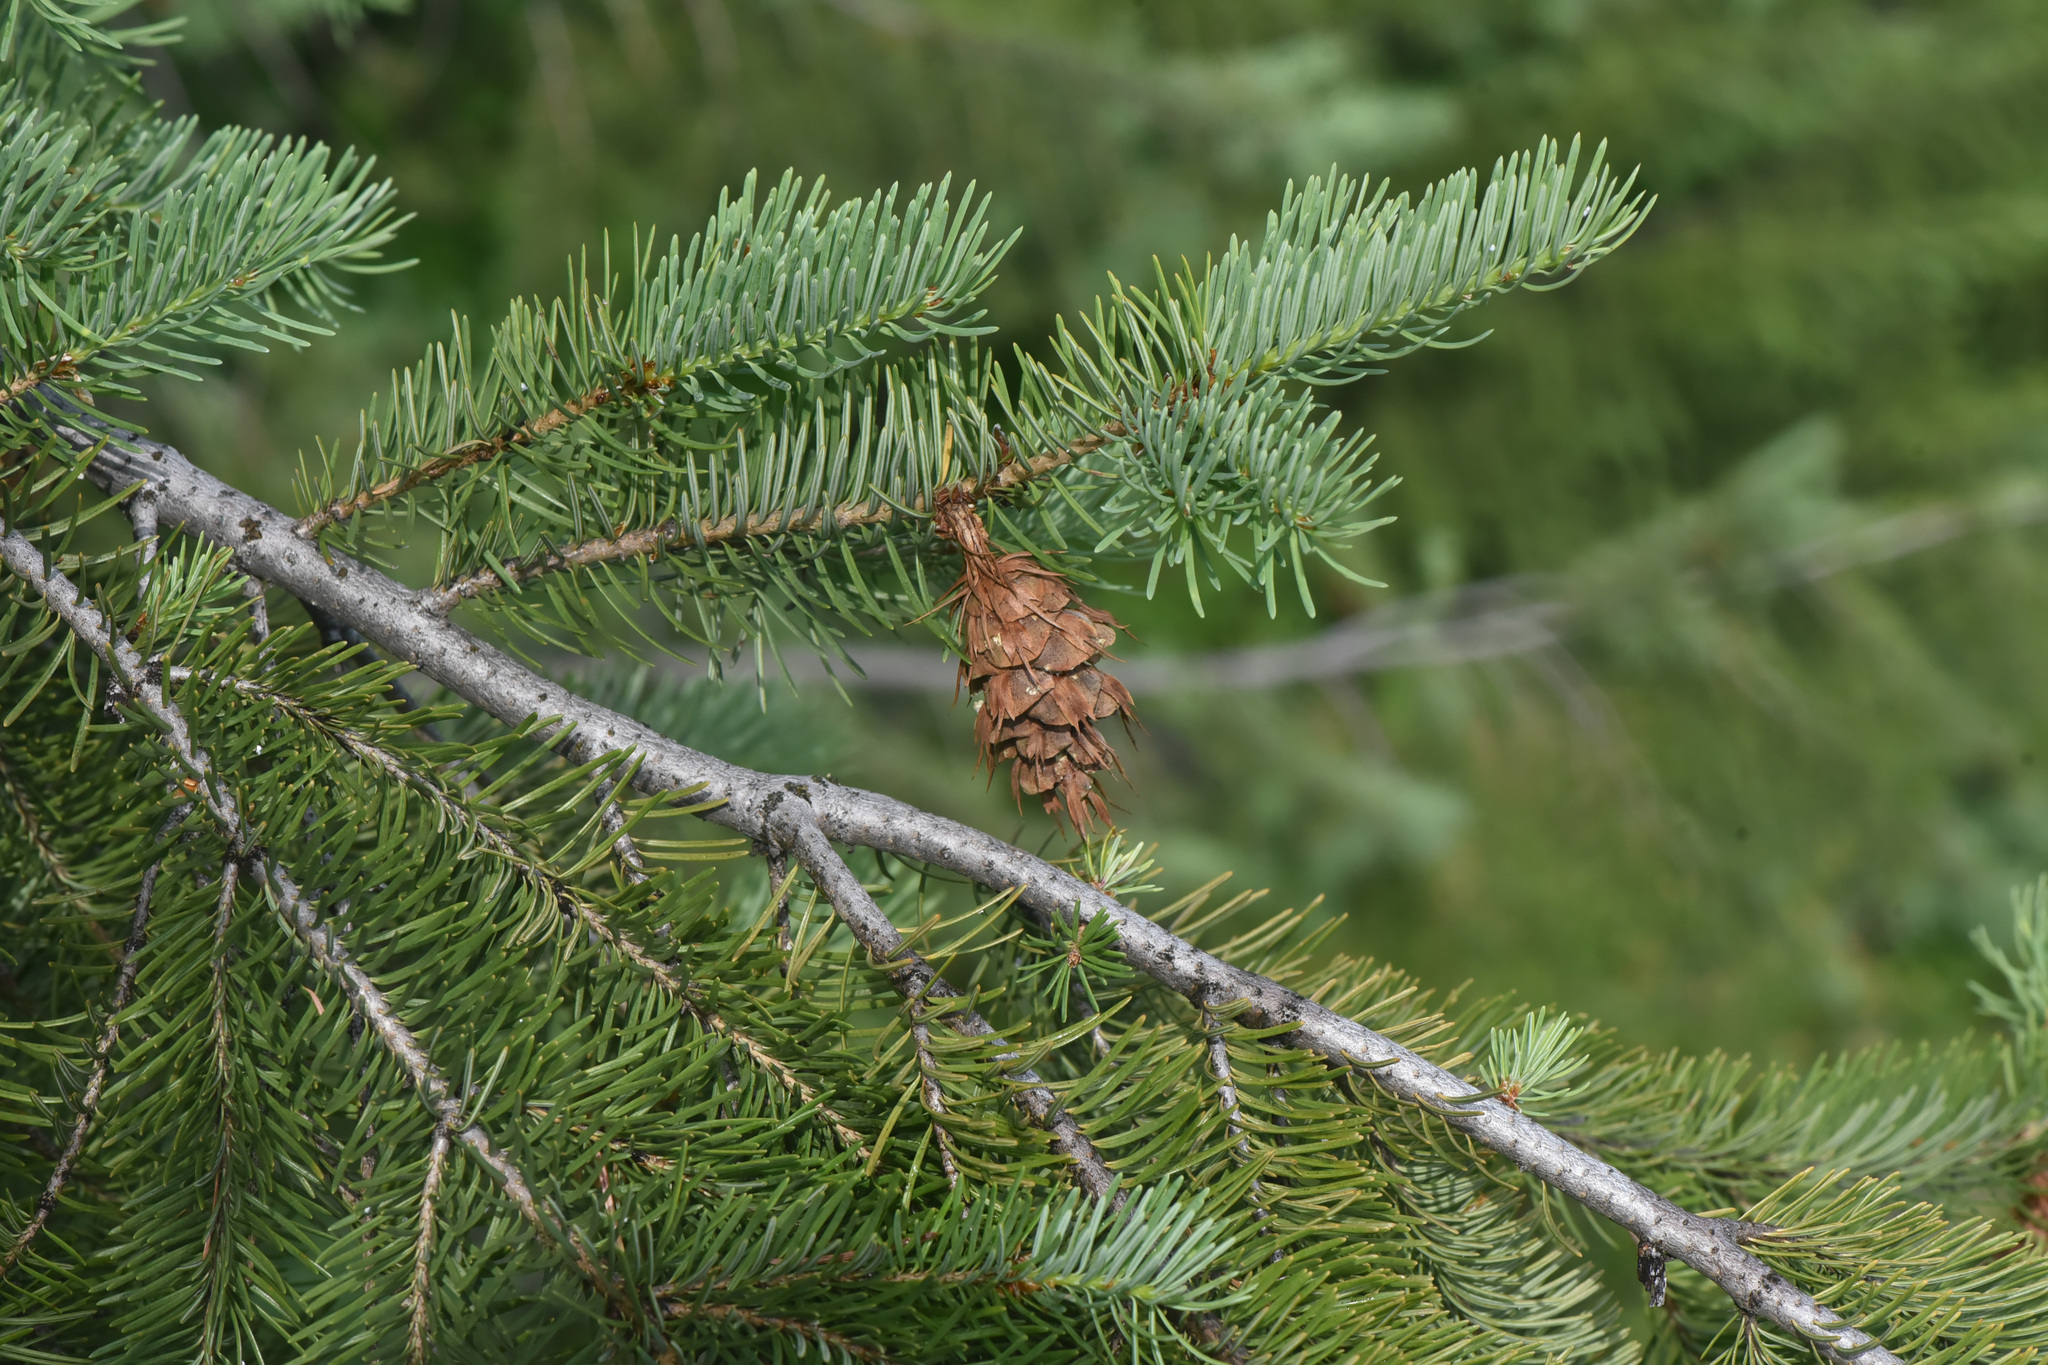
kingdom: Plantae
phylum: Tracheophyta
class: Pinopsida
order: Pinales
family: Pinaceae
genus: Pseudotsuga
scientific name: Pseudotsuga menziesii
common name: Douglas fir
